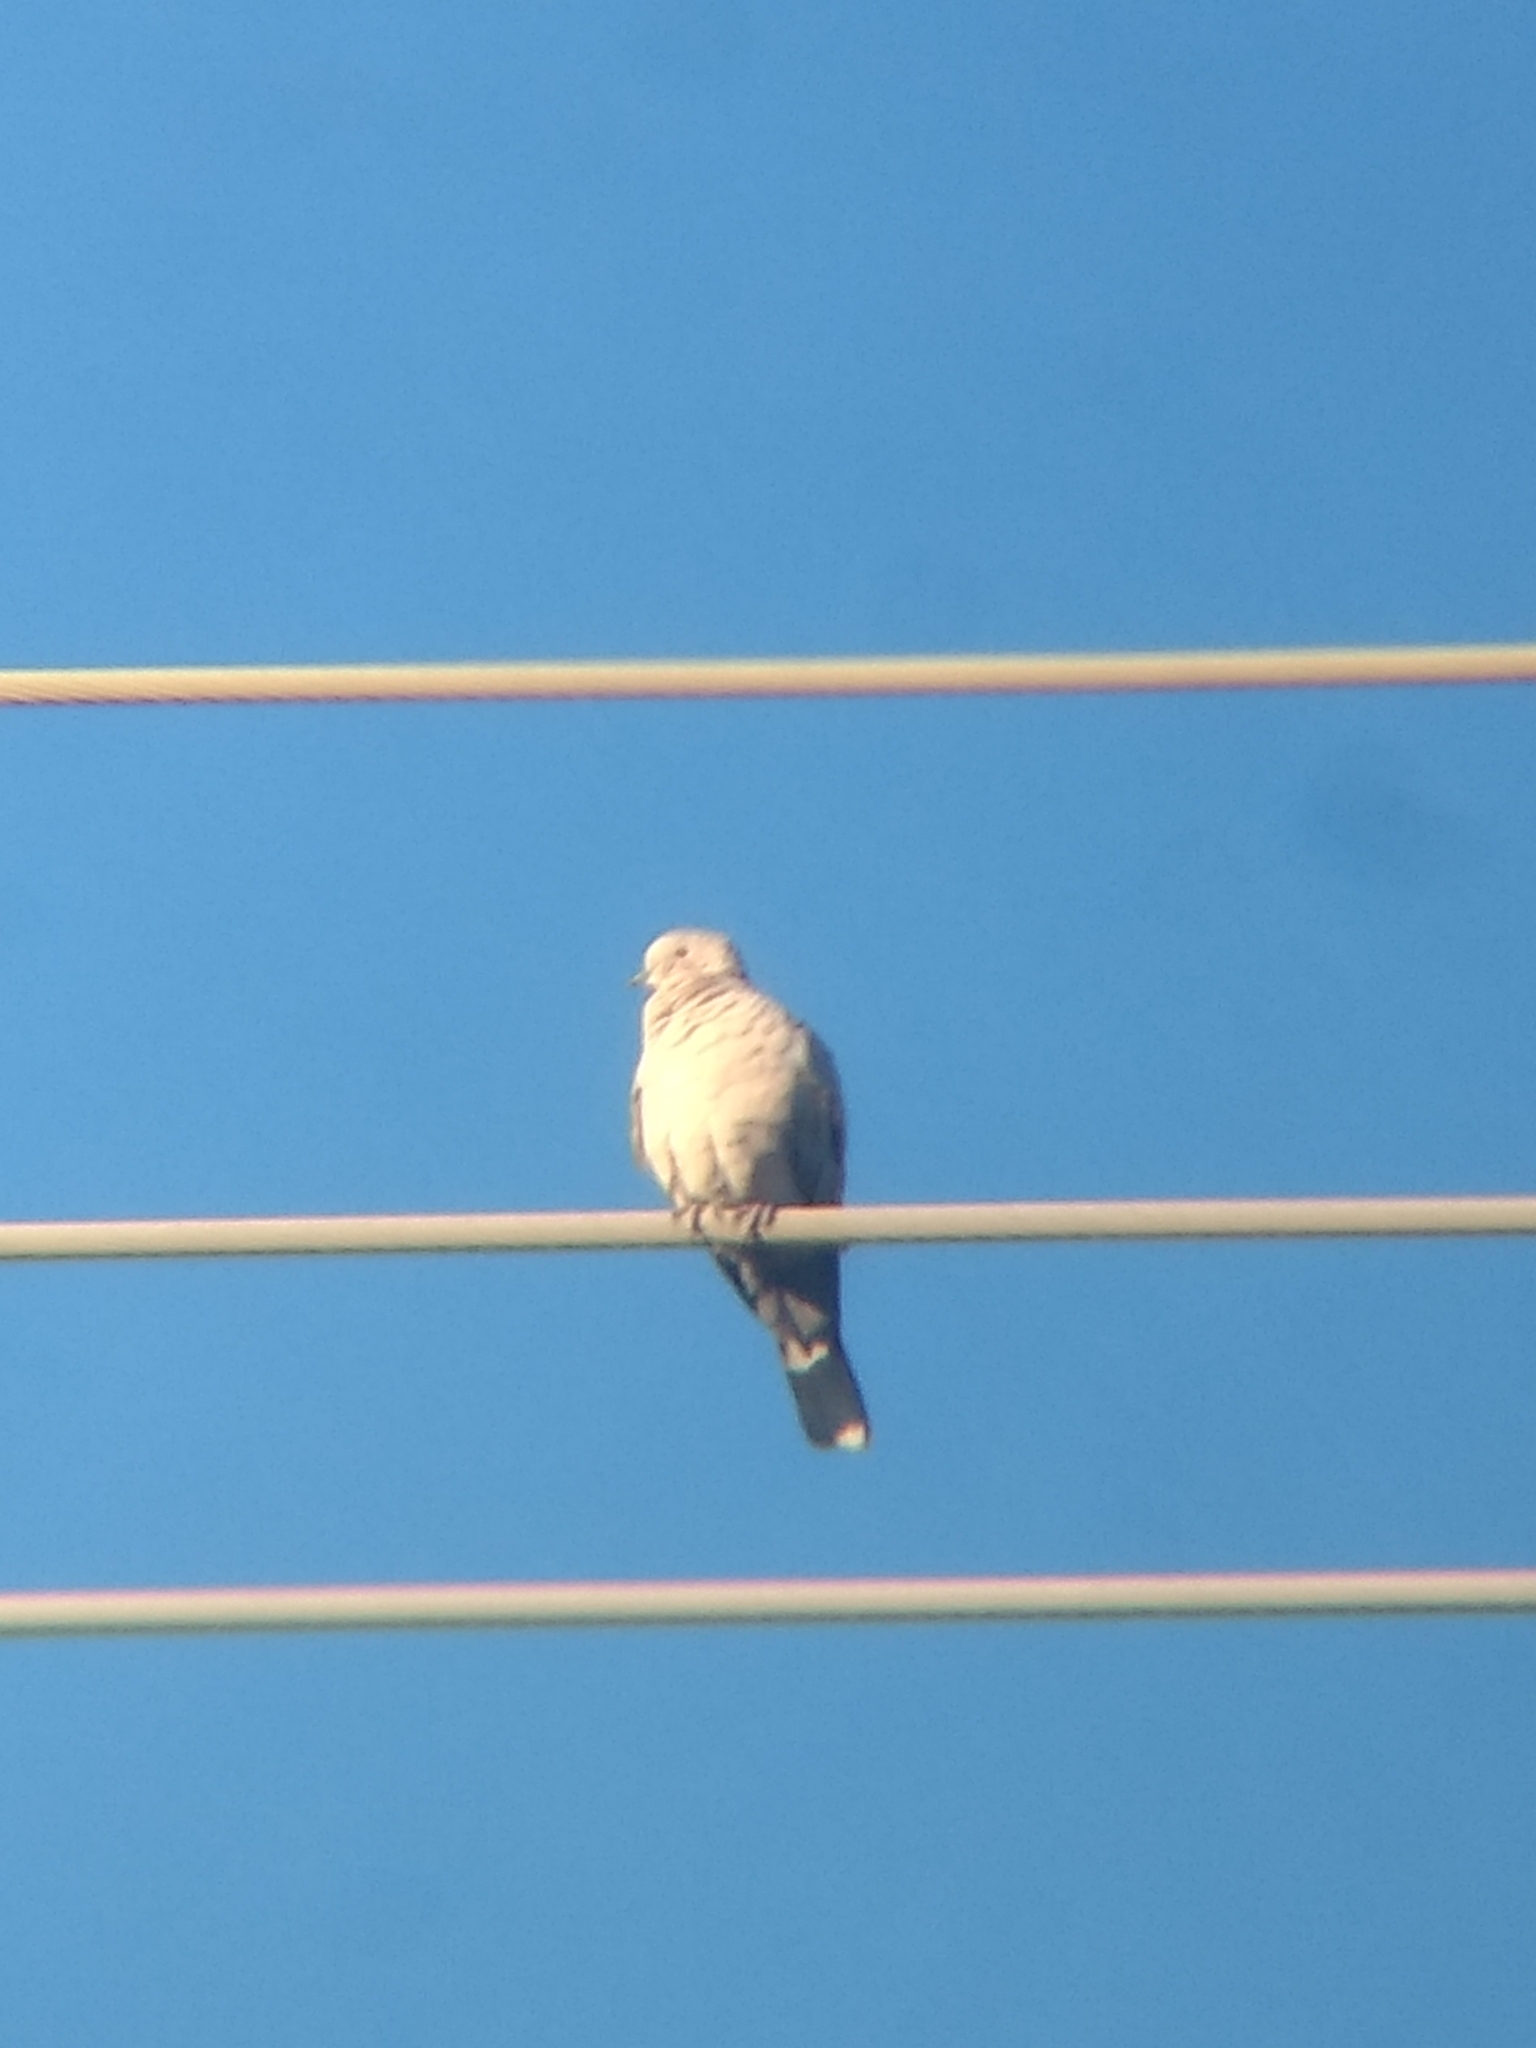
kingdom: Animalia
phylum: Chordata
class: Aves
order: Columbiformes
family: Columbidae
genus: Streptopelia
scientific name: Streptopelia decaocto
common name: Eurasian collared dove
